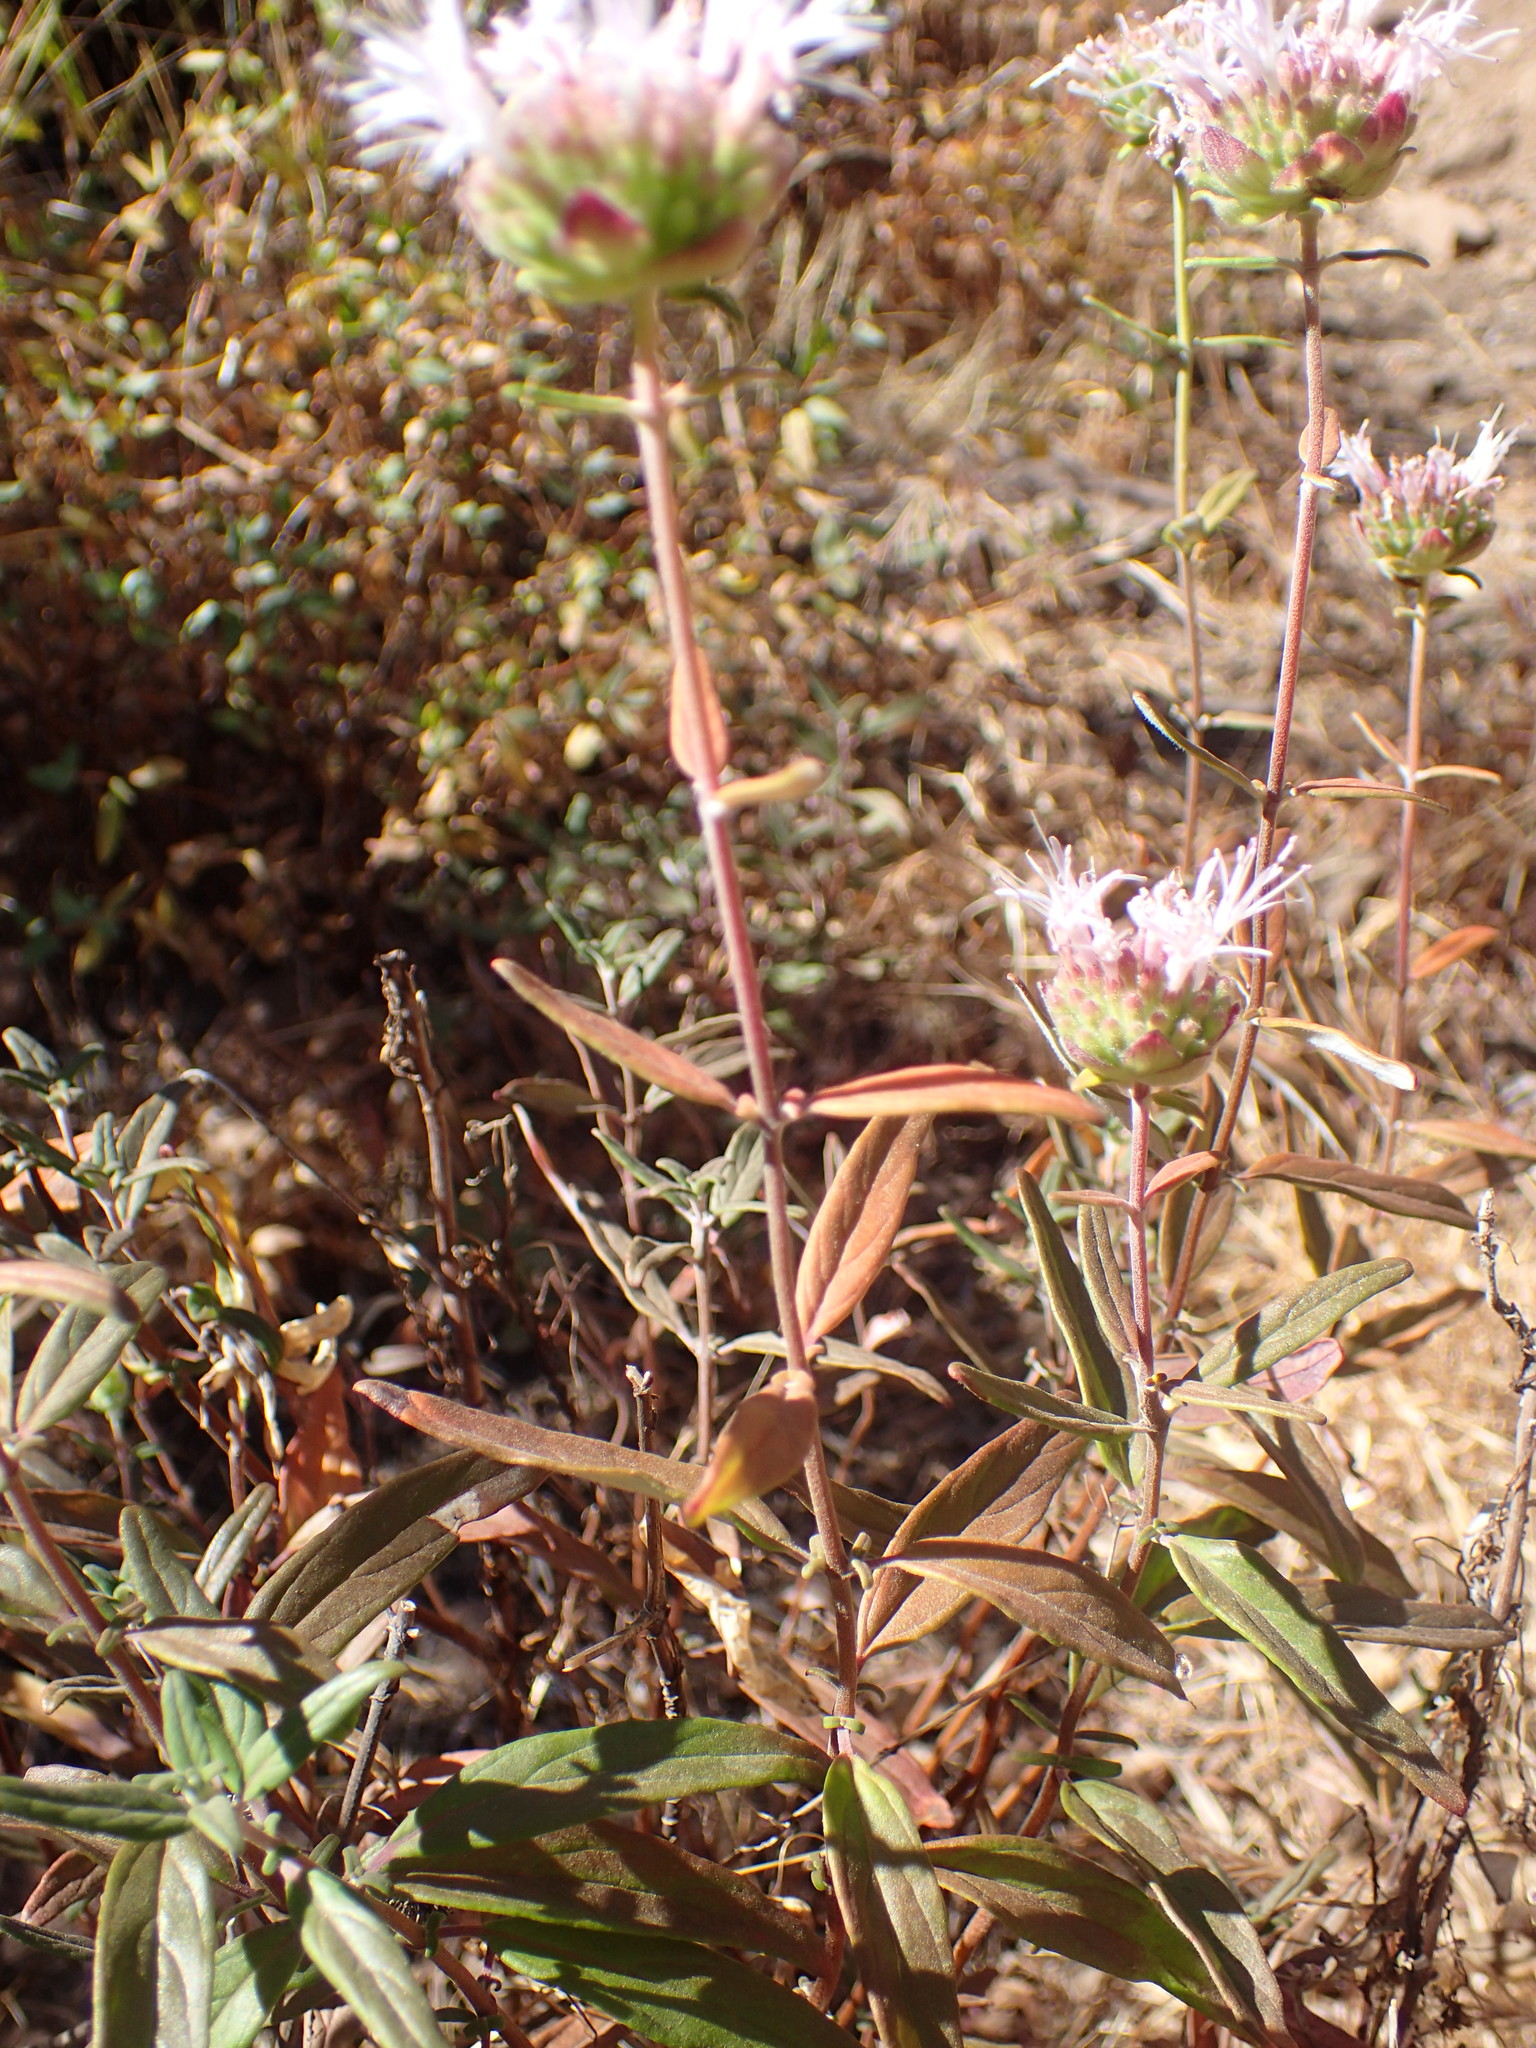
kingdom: Plantae
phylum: Tracheophyta
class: Magnoliopsida
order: Lamiales
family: Lamiaceae
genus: Monardella
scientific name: Monardella hypoleuca
